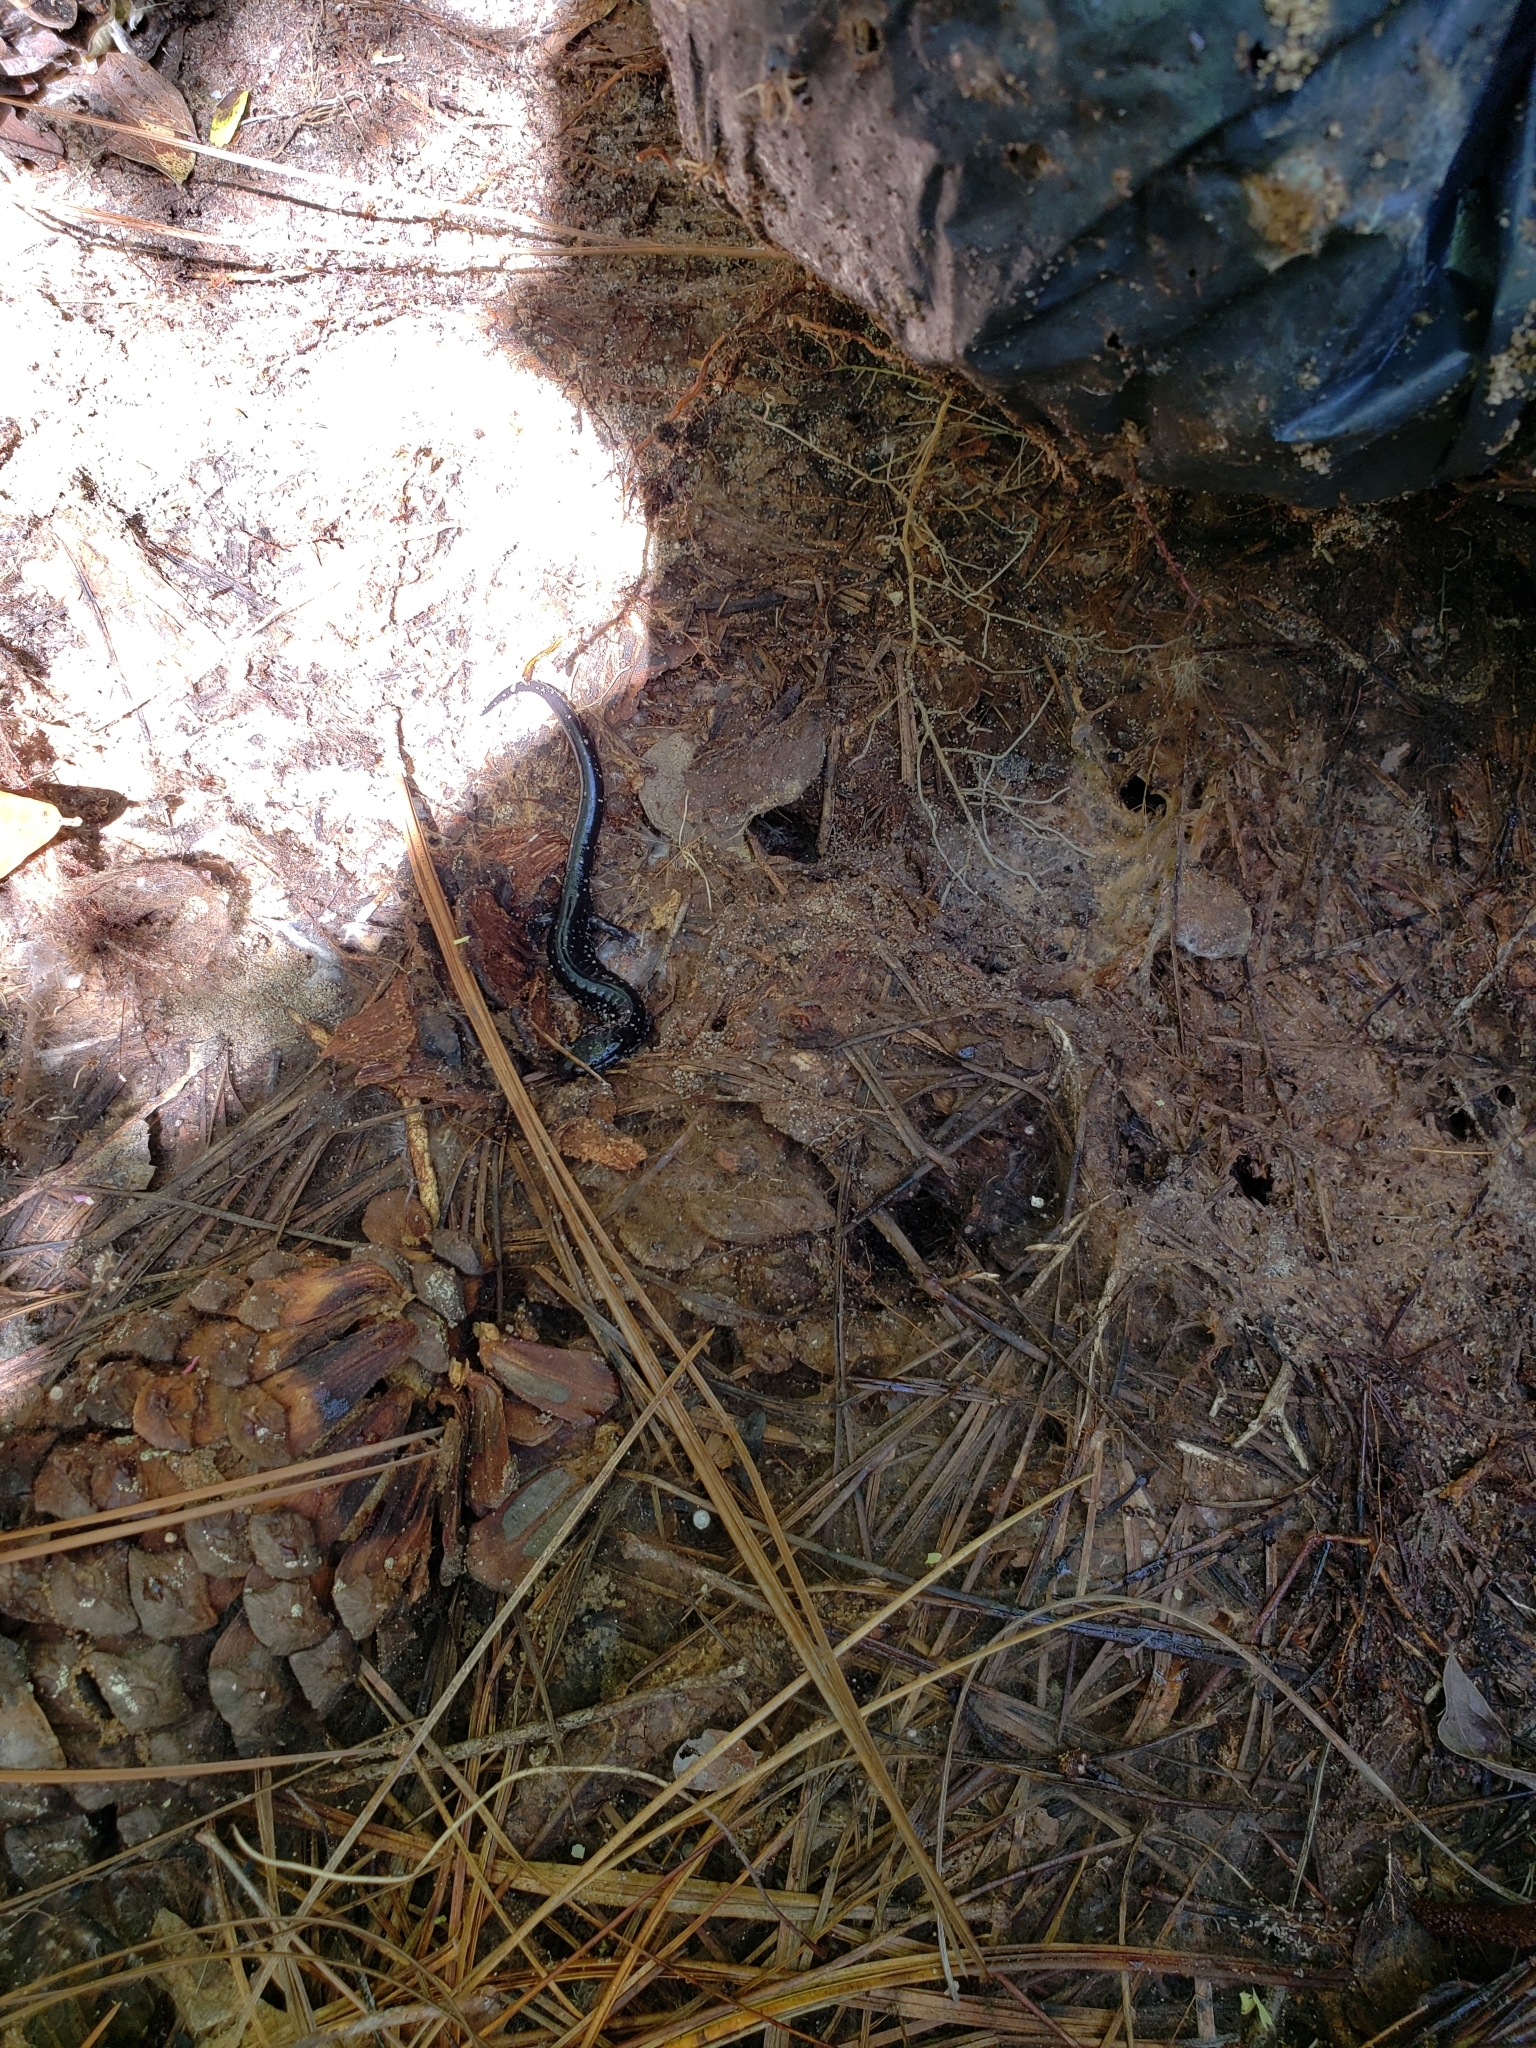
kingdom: Animalia
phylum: Chordata
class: Amphibia
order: Caudata
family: Plethodontidae
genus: Plethodon
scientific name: Plethodon mississippi
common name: Mississippi slimy salamander
